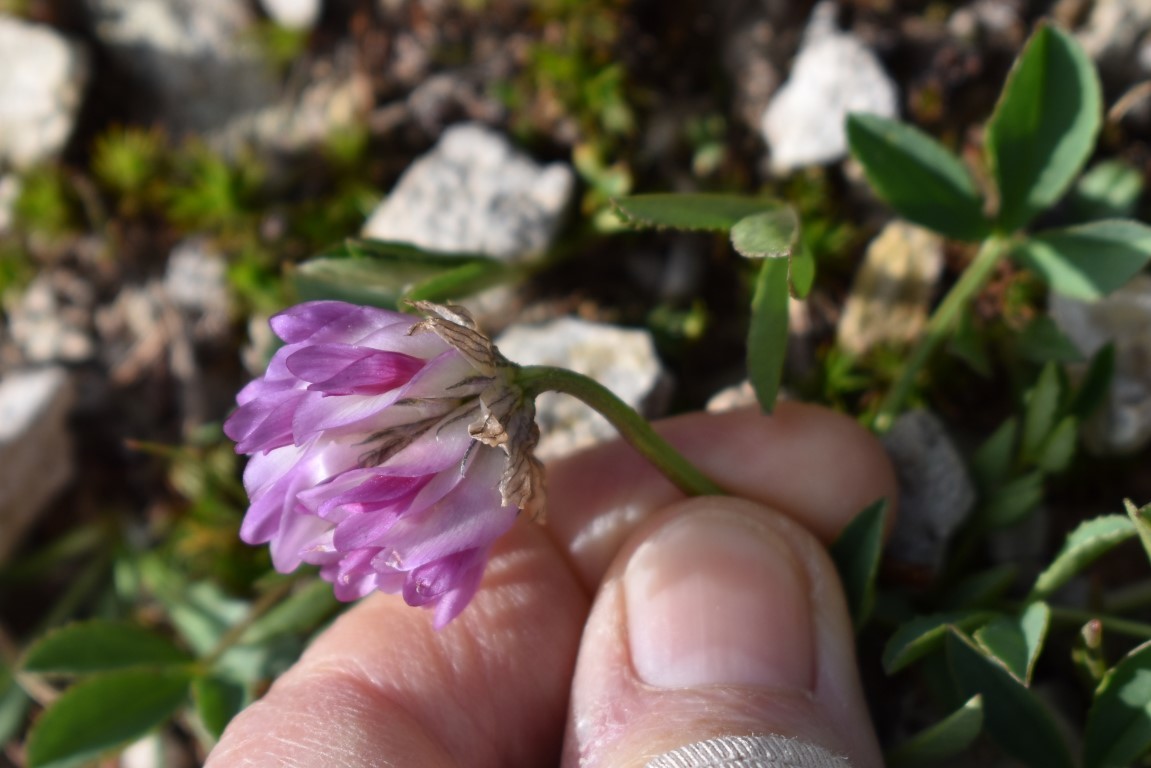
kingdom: Plantae
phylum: Tracheophyta
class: Magnoliopsida
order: Fabales
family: Fabaceae
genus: Trifolium
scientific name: Trifolium parryi
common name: Parry's clover
